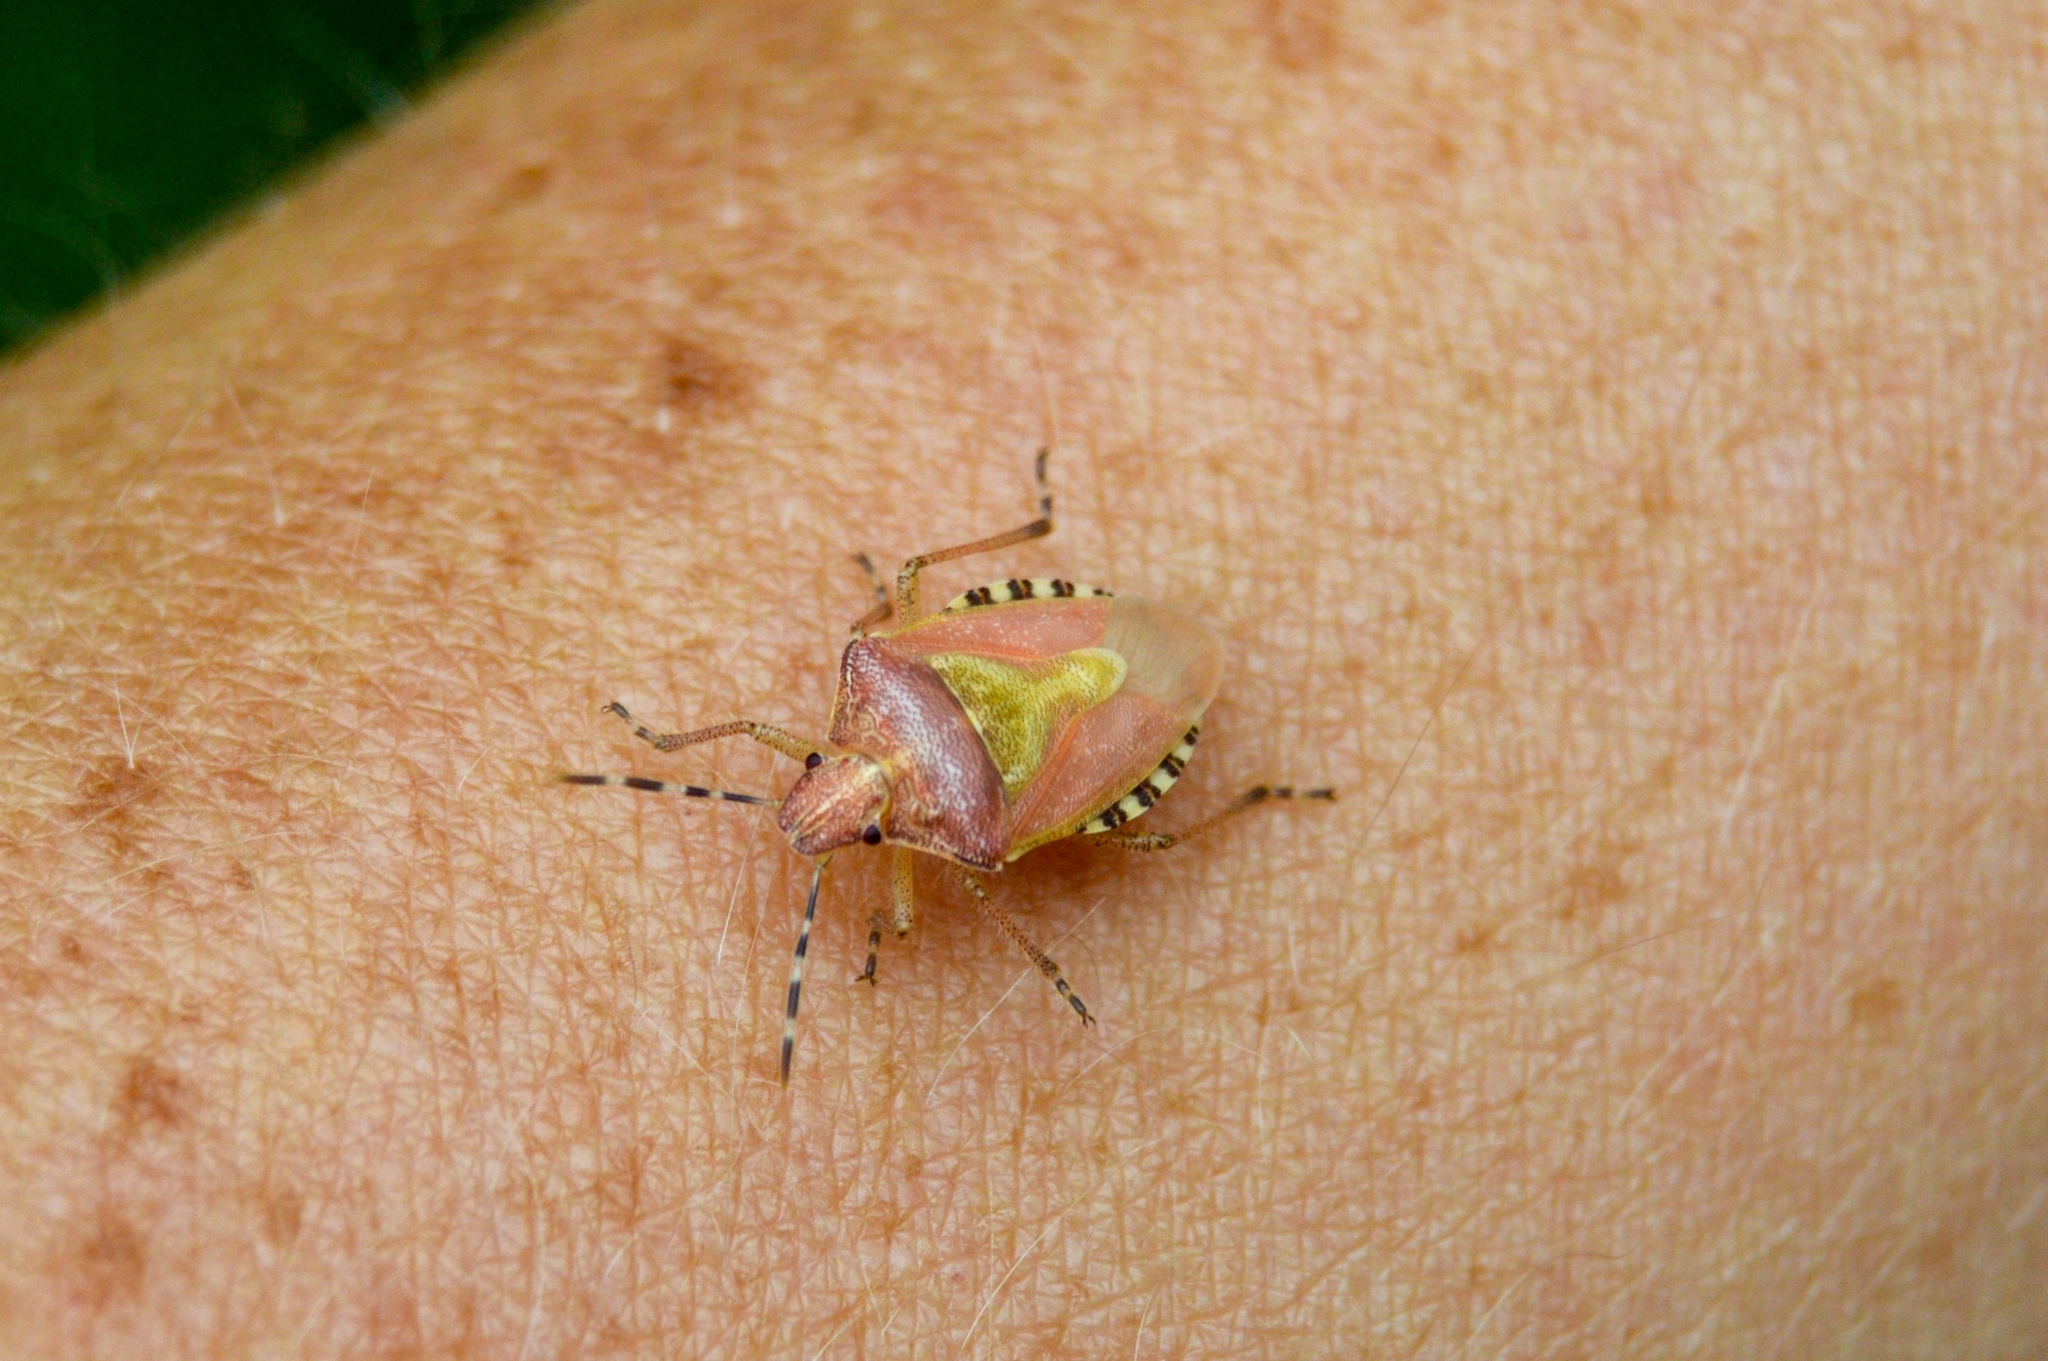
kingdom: Animalia
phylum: Arthropoda
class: Insecta
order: Hemiptera
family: Pentatomidae
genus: Dolycoris
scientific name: Dolycoris baccarum
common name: Sloe bug
